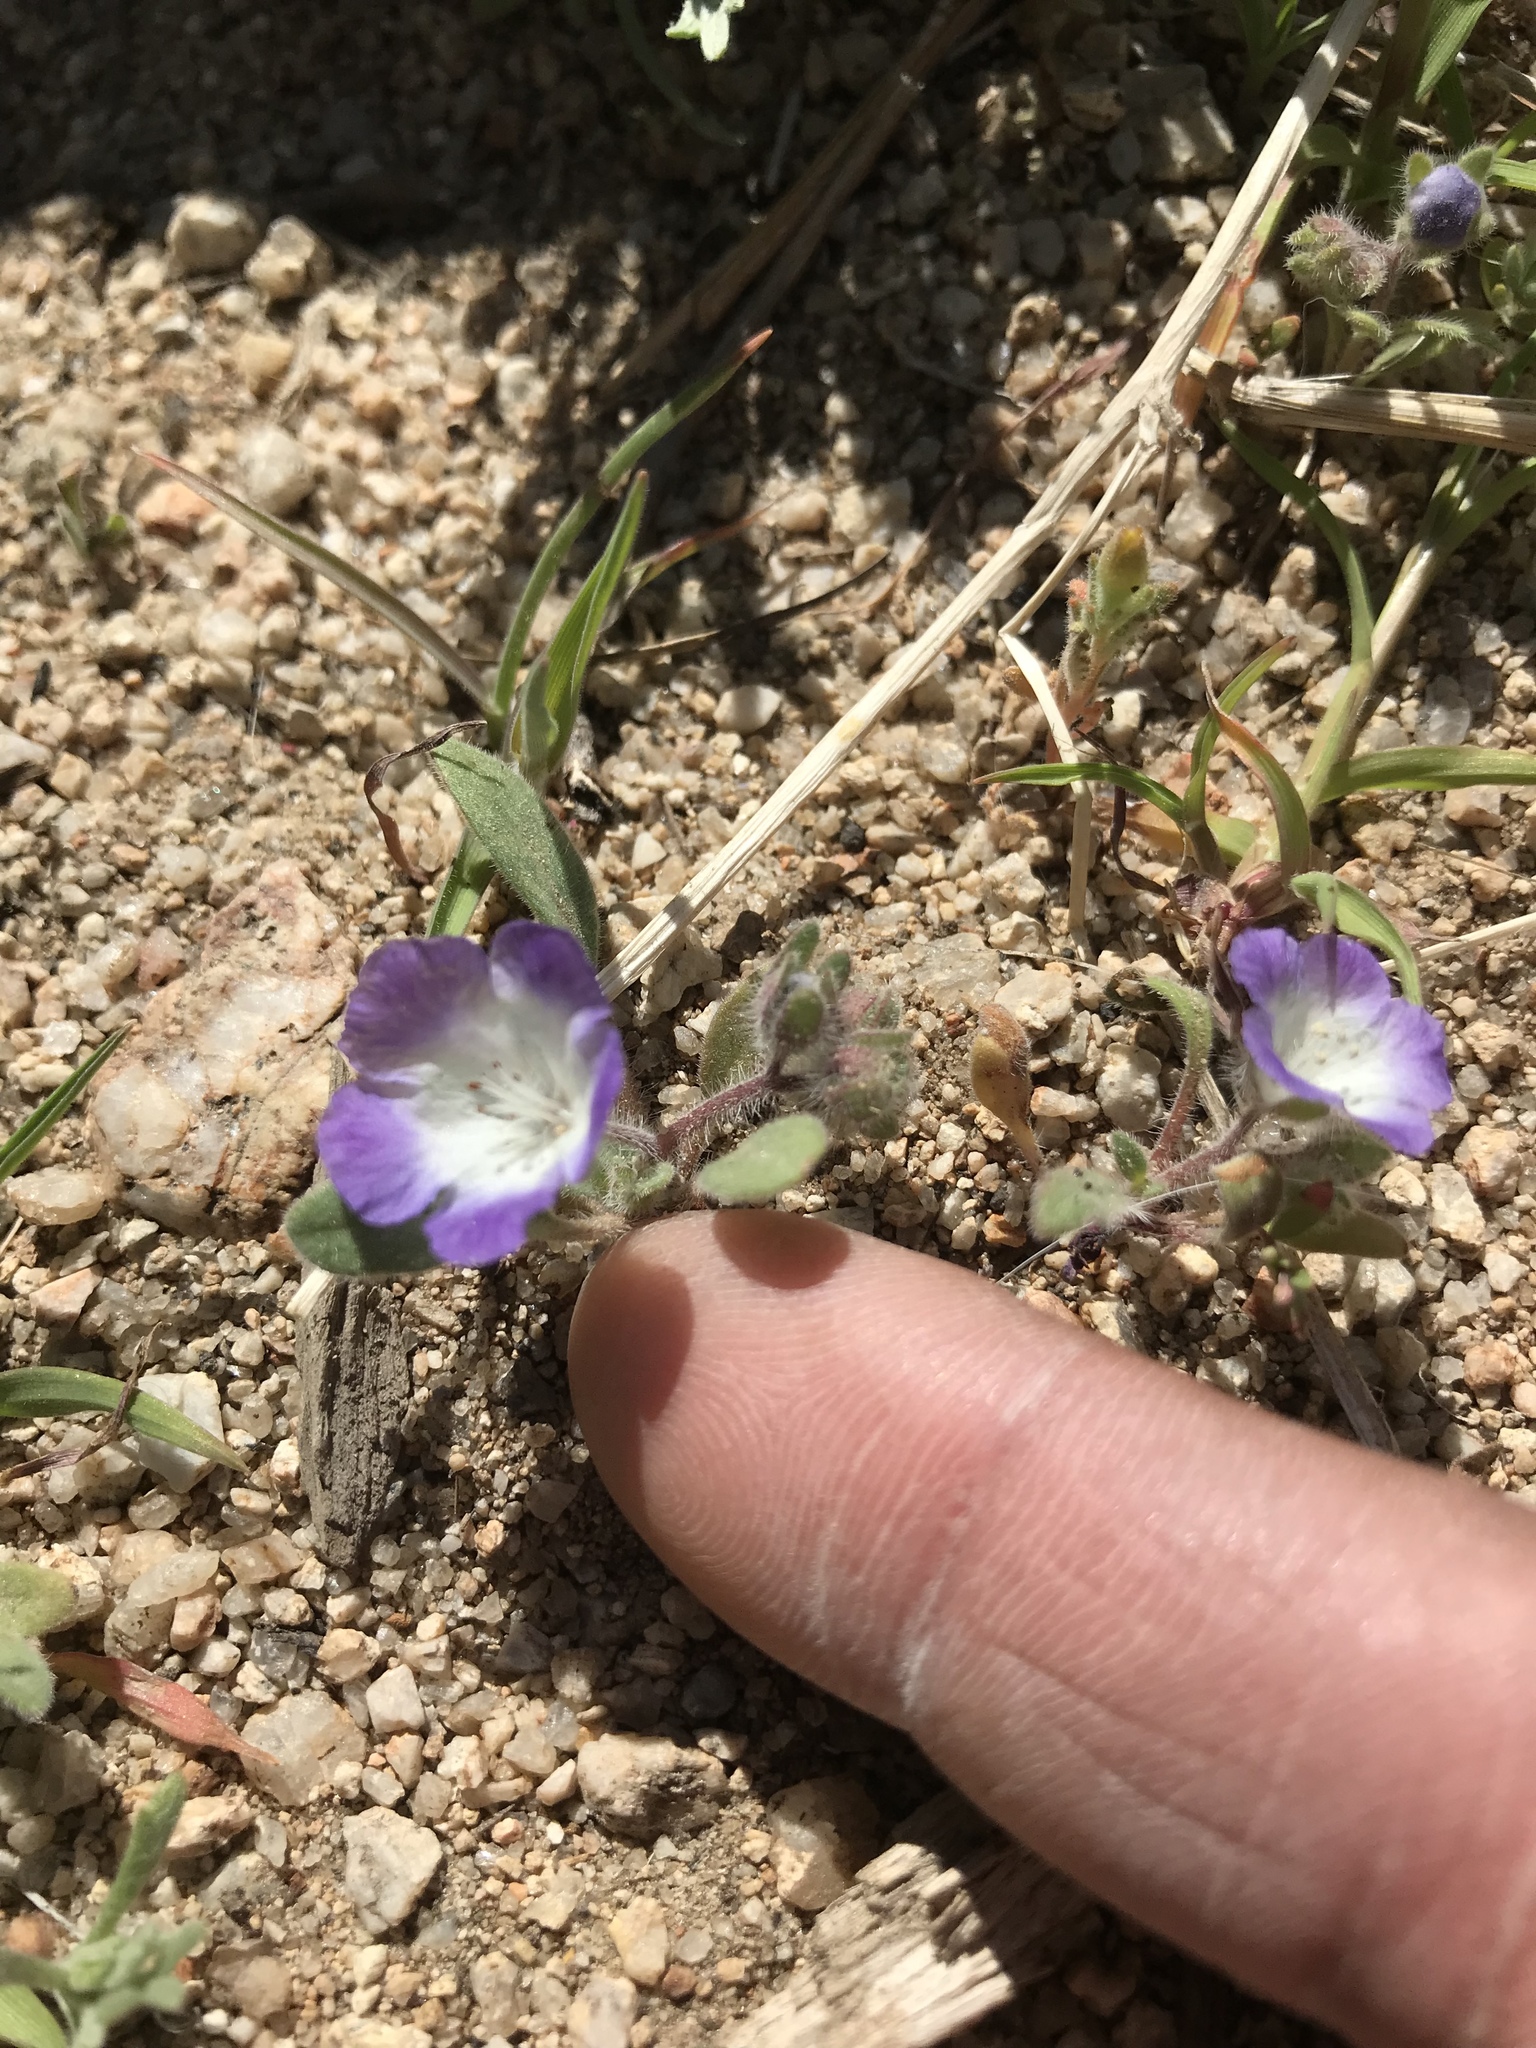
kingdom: Plantae
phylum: Tracheophyta
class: Magnoliopsida
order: Boraginales
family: Hydrophyllaceae
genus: Phacelia
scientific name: Phacelia curvipes
